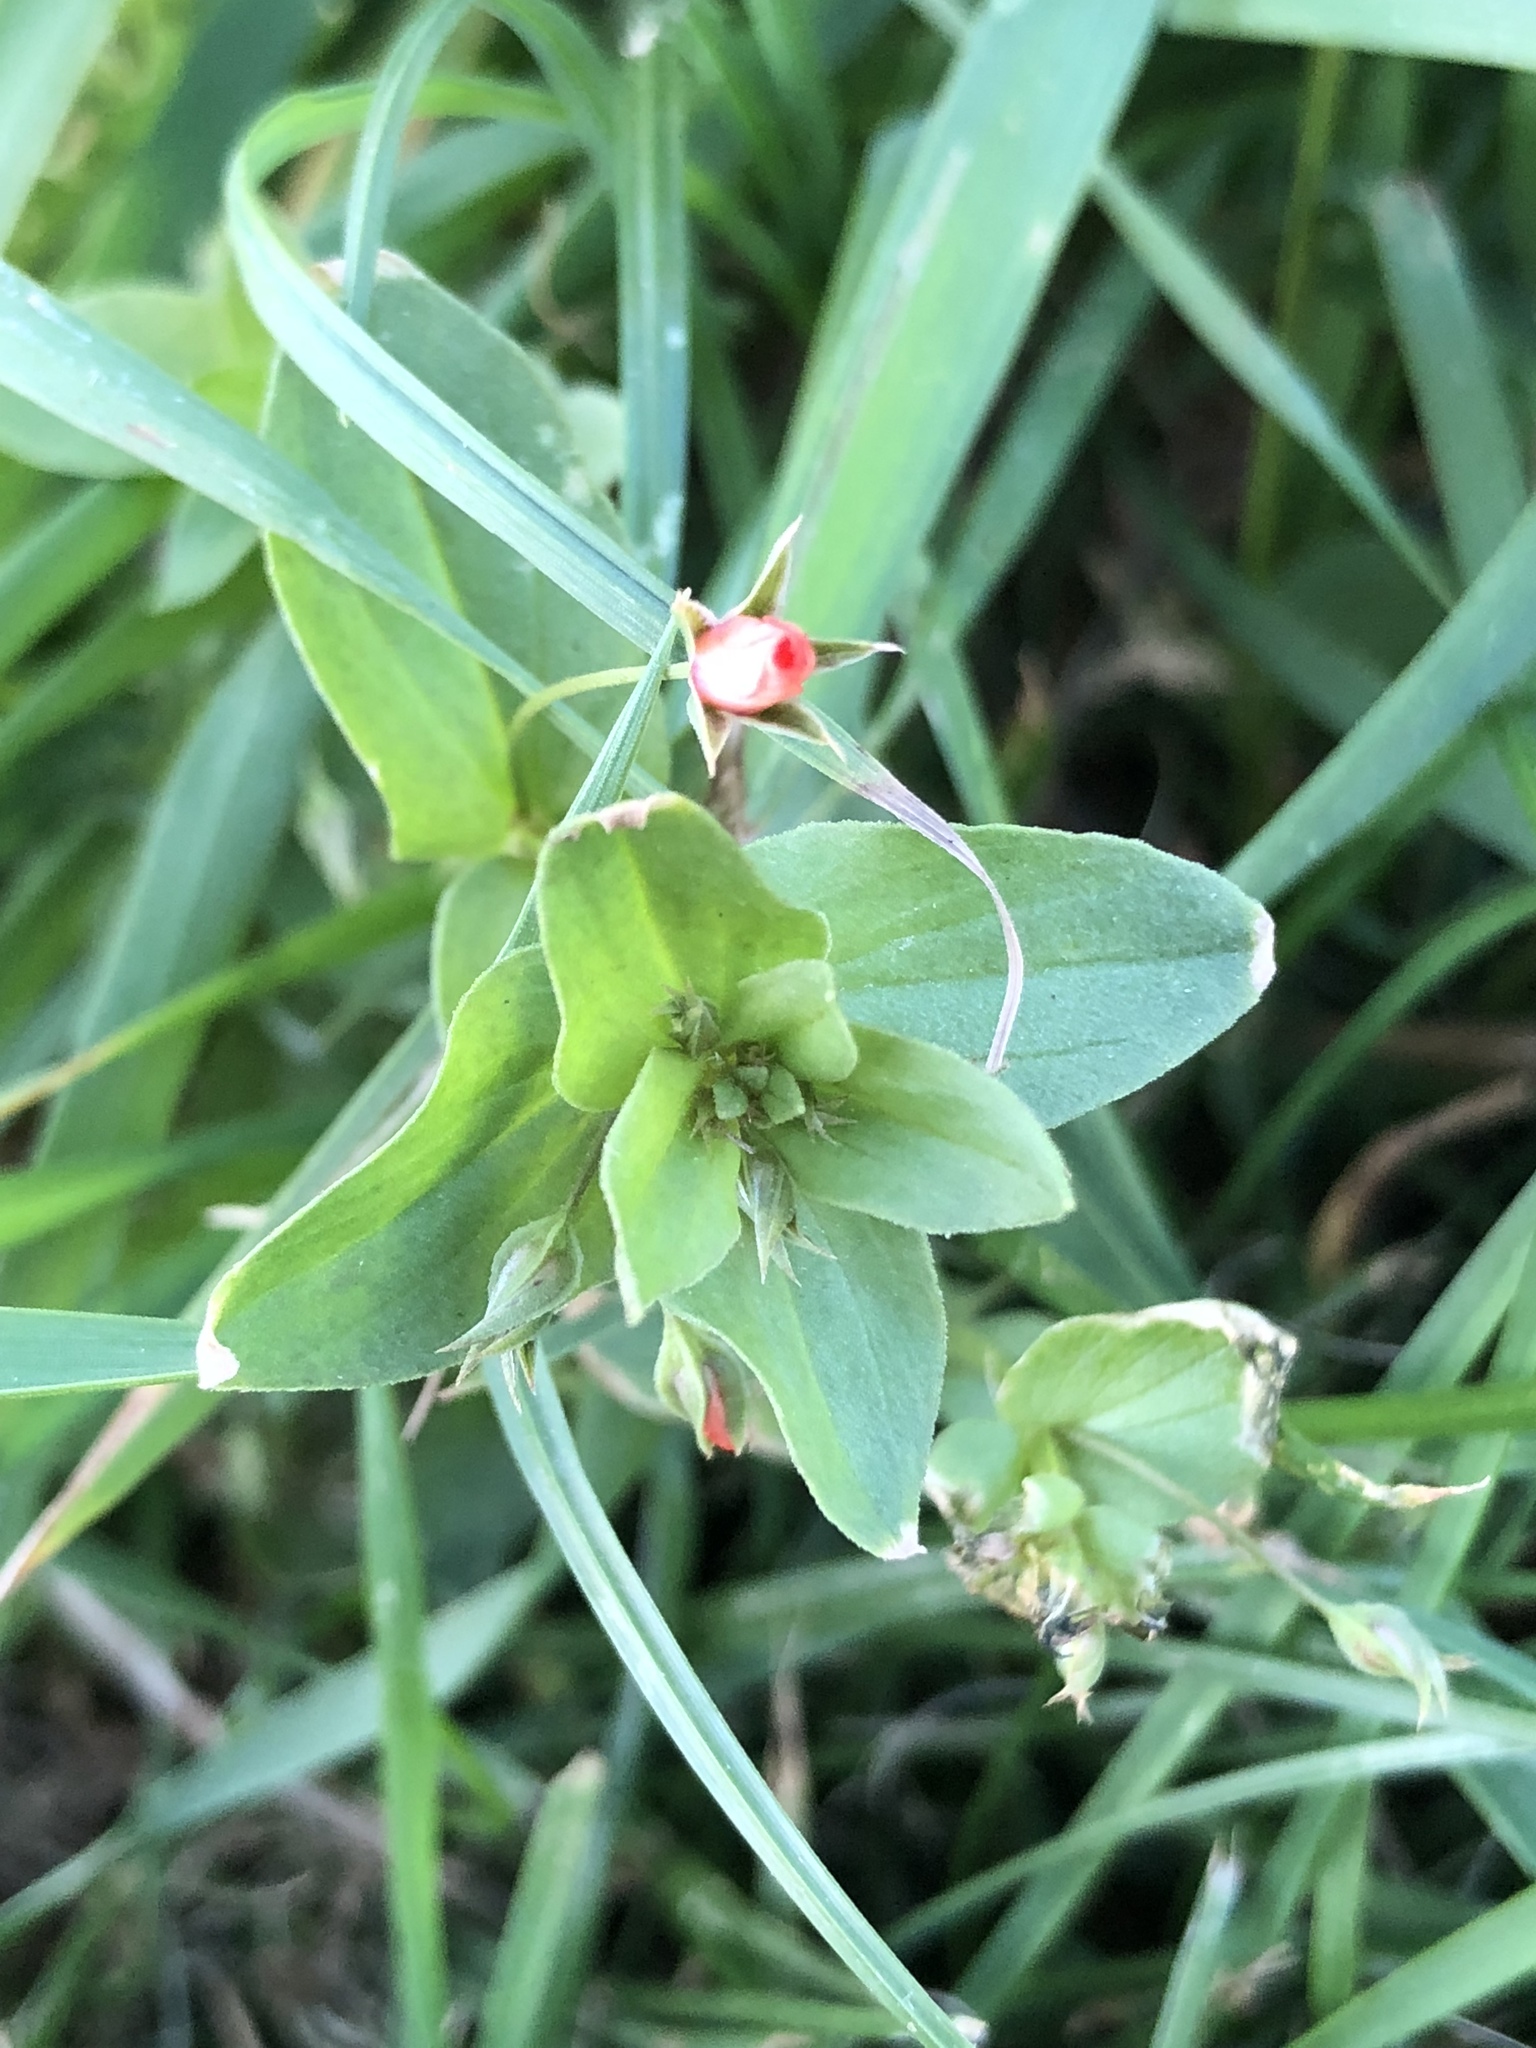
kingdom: Plantae
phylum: Tracheophyta
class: Magnoliopsida
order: Ericales
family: Primulaceae
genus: Lysimachia
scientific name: Lysimachia arvensis
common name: Scarlet pimpernel
